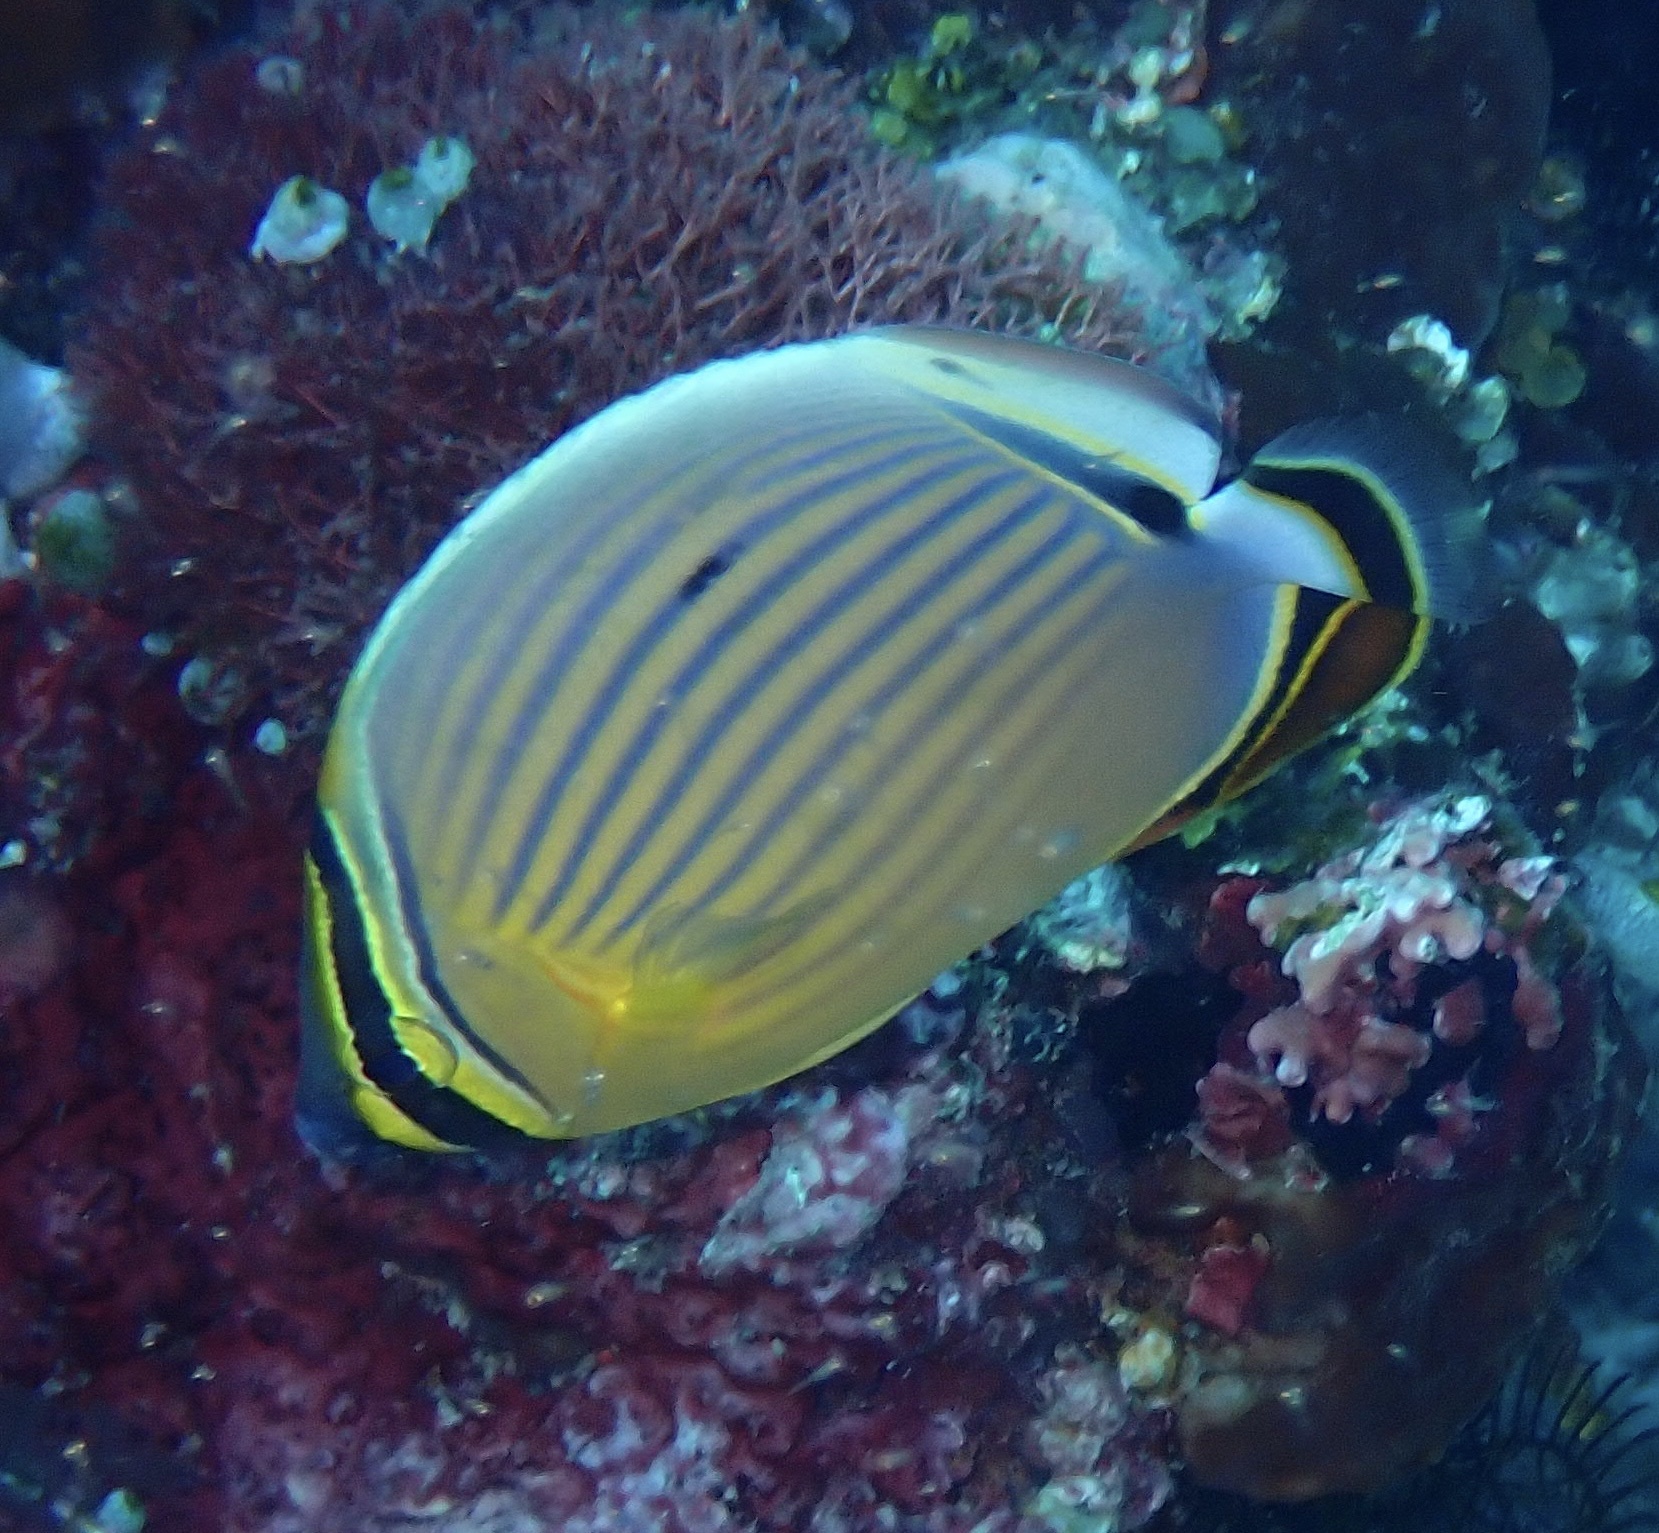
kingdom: Animalia
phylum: Chordata
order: Perciformes
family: Chaetodontidae
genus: Chaetodon
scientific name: Chaetodon lunulatus
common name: Redfin butterflyfish
